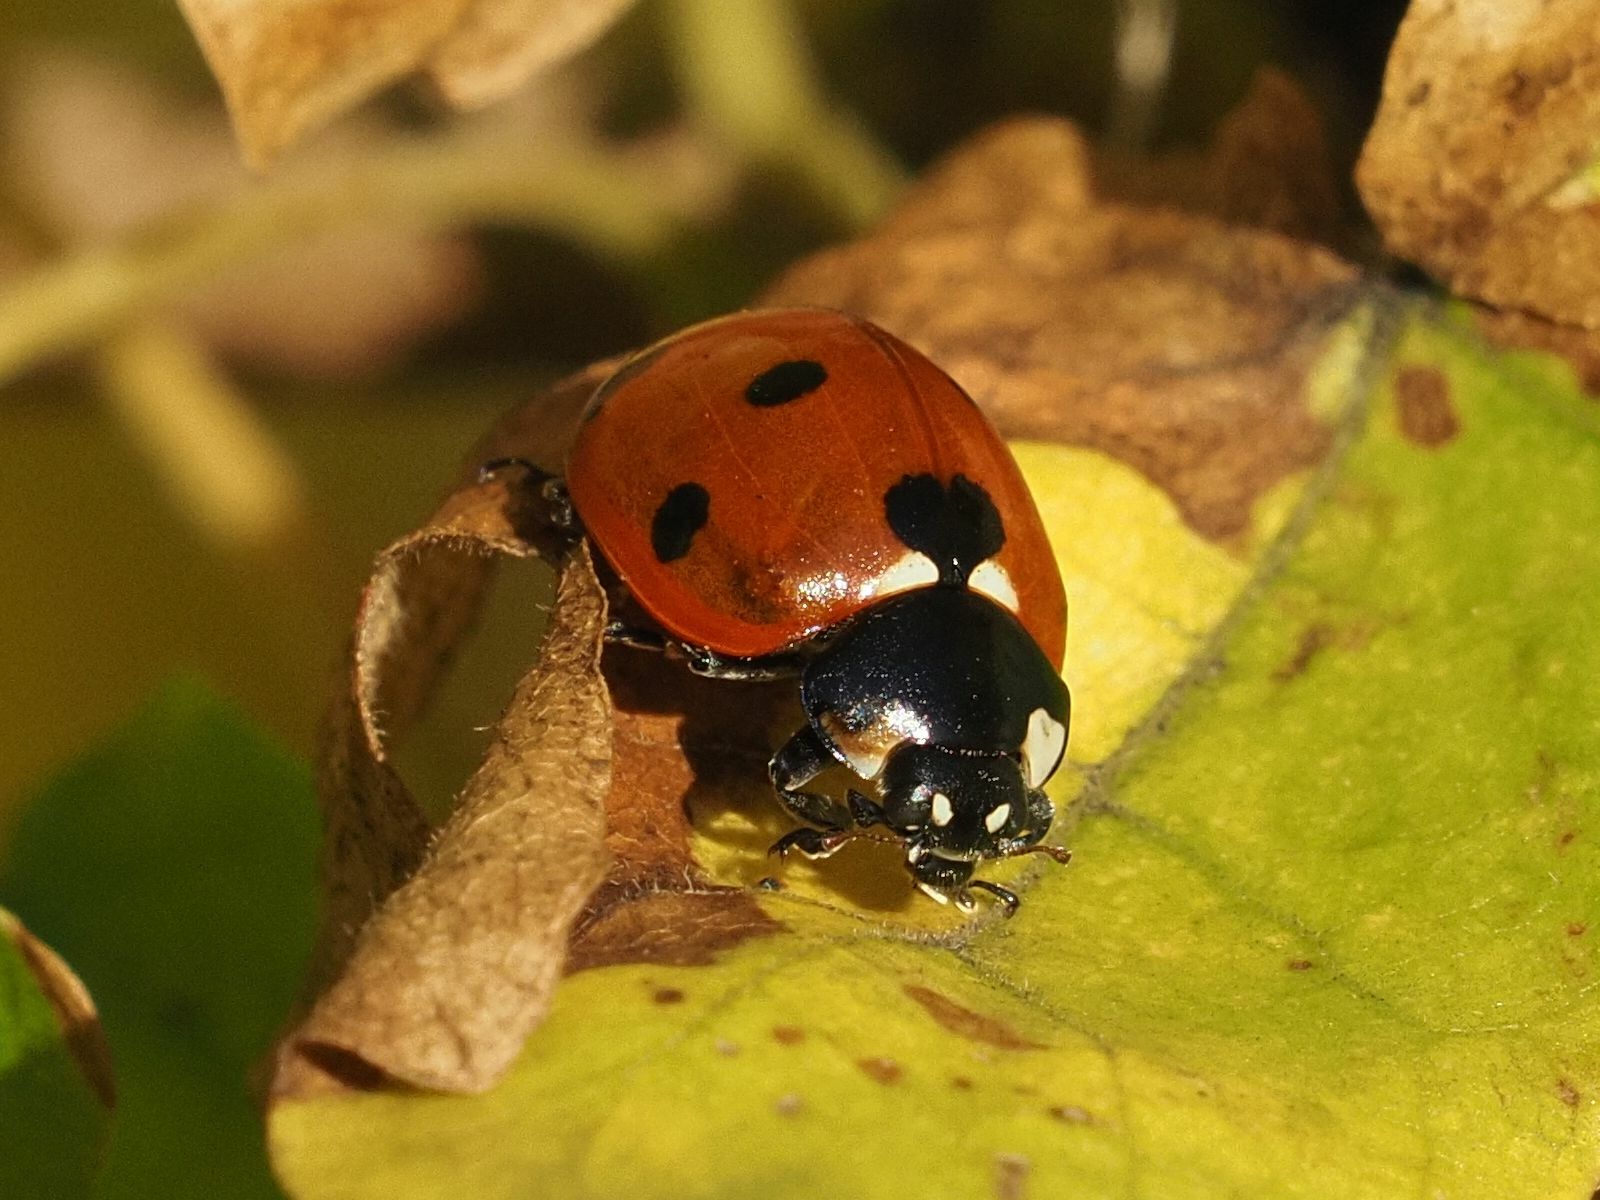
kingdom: Animalia
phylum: Arthropoda
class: Insecta
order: Coleoptera
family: Coccinellidae
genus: Coccinella
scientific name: Coccinella septempunctata
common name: Sevenspotted lady beetle
